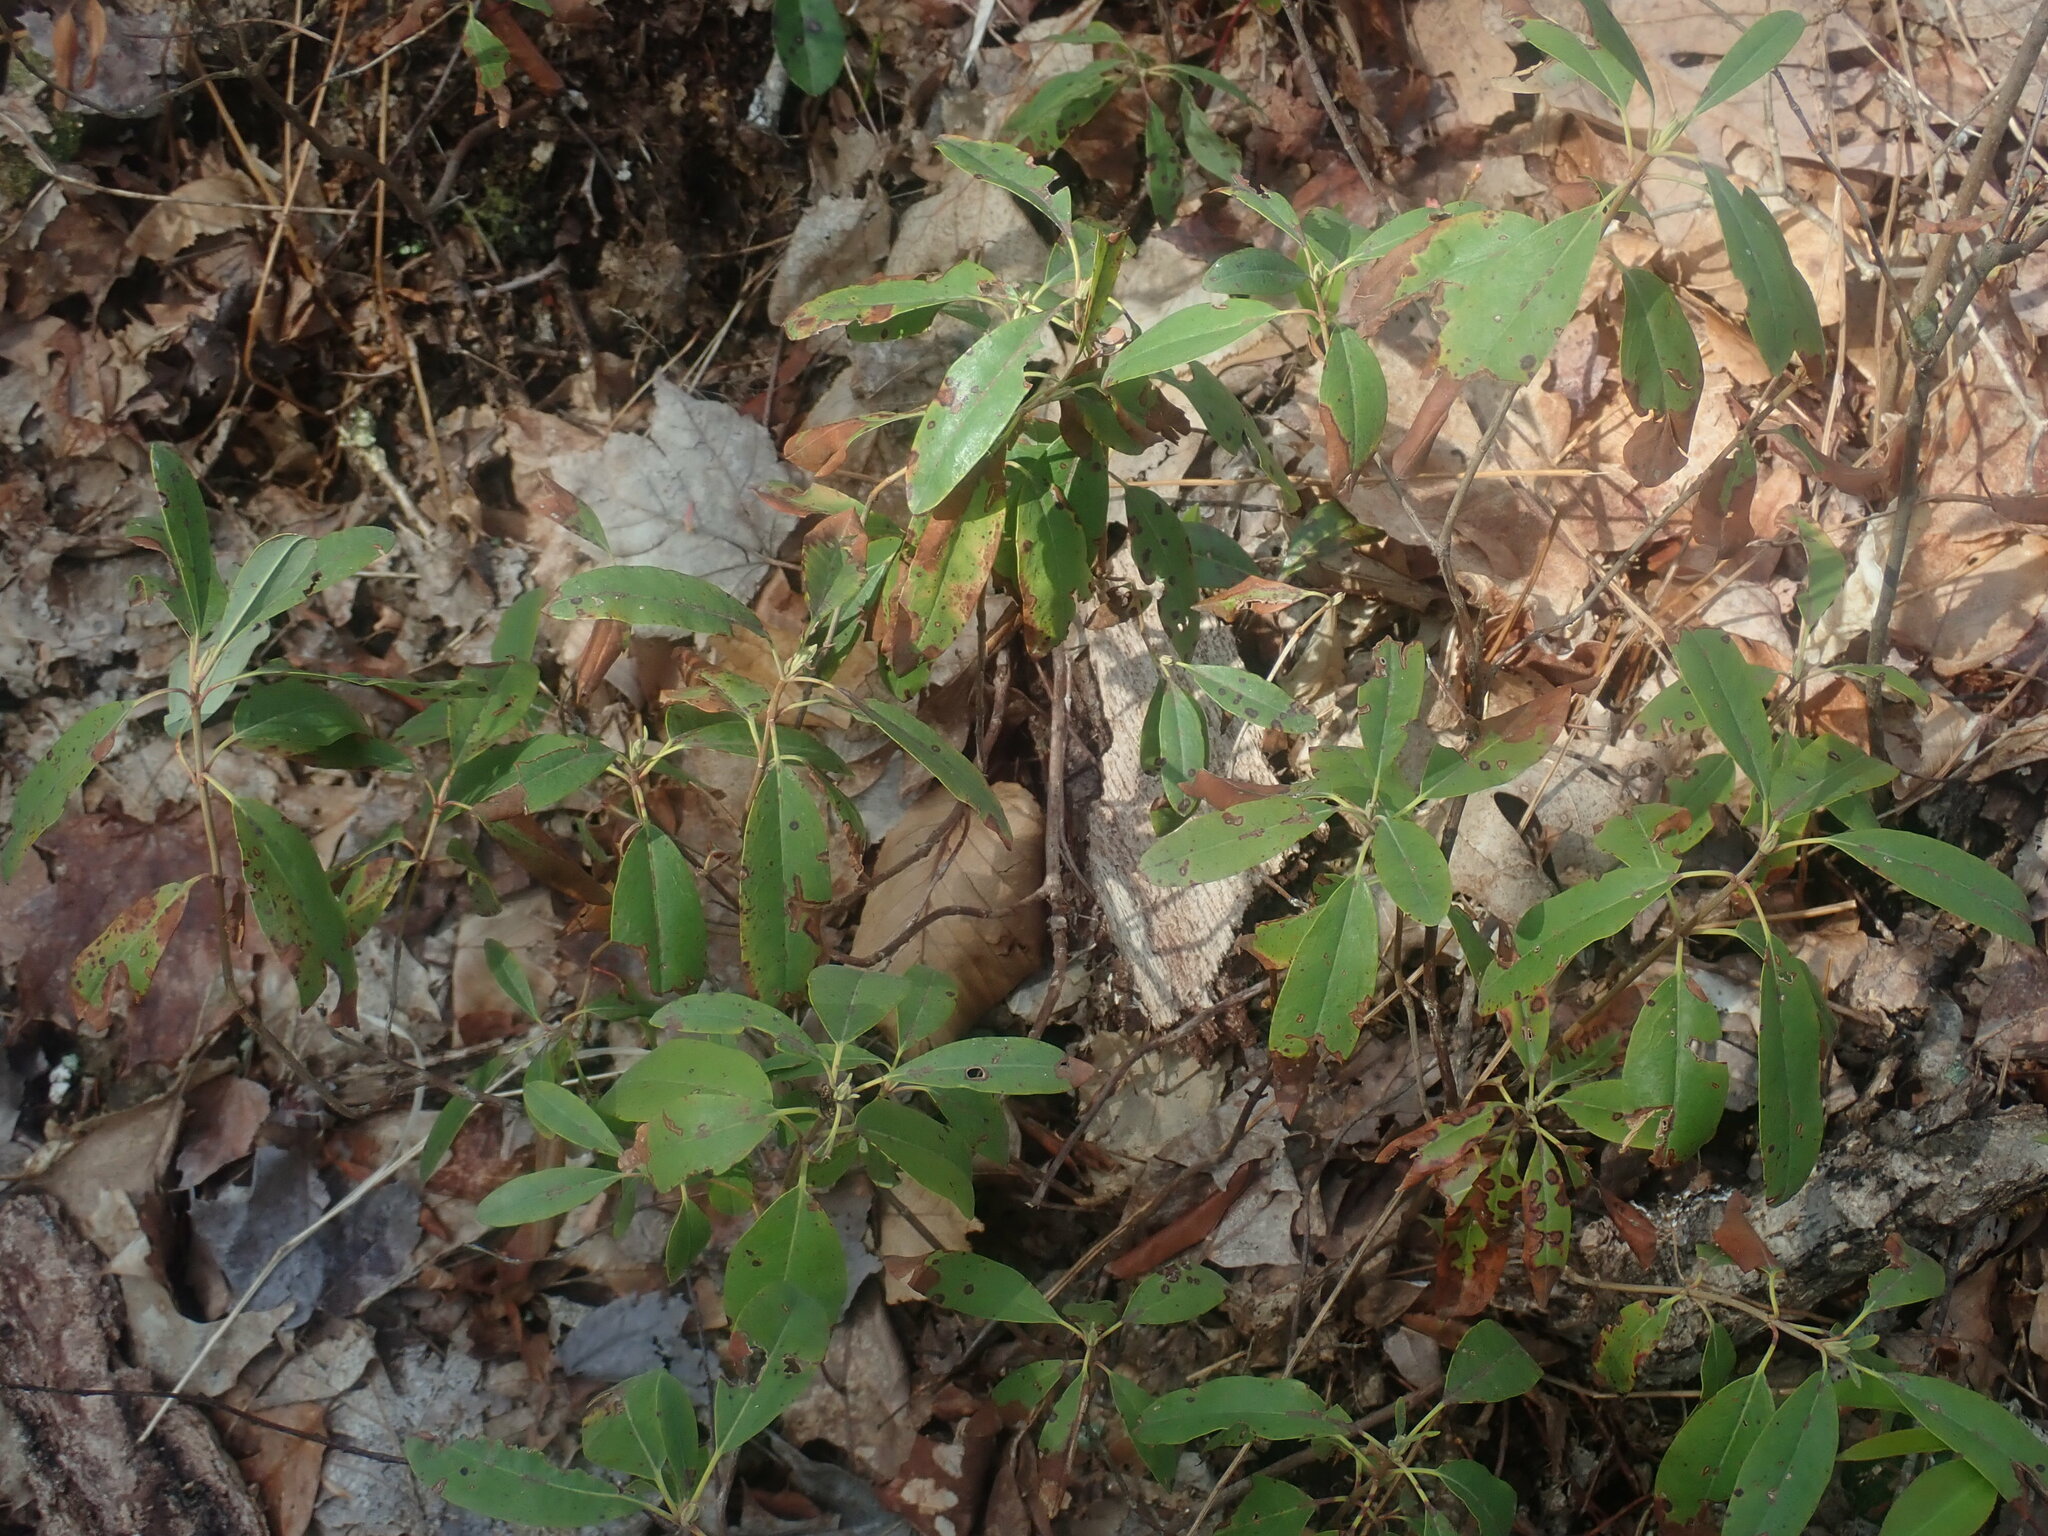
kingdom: Plantae
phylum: Tracheophyta
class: Magnoliopsida
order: Ericales
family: Ericaceae
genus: Kalmia
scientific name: Kalmia angustifolia
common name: Sheep-laurel
